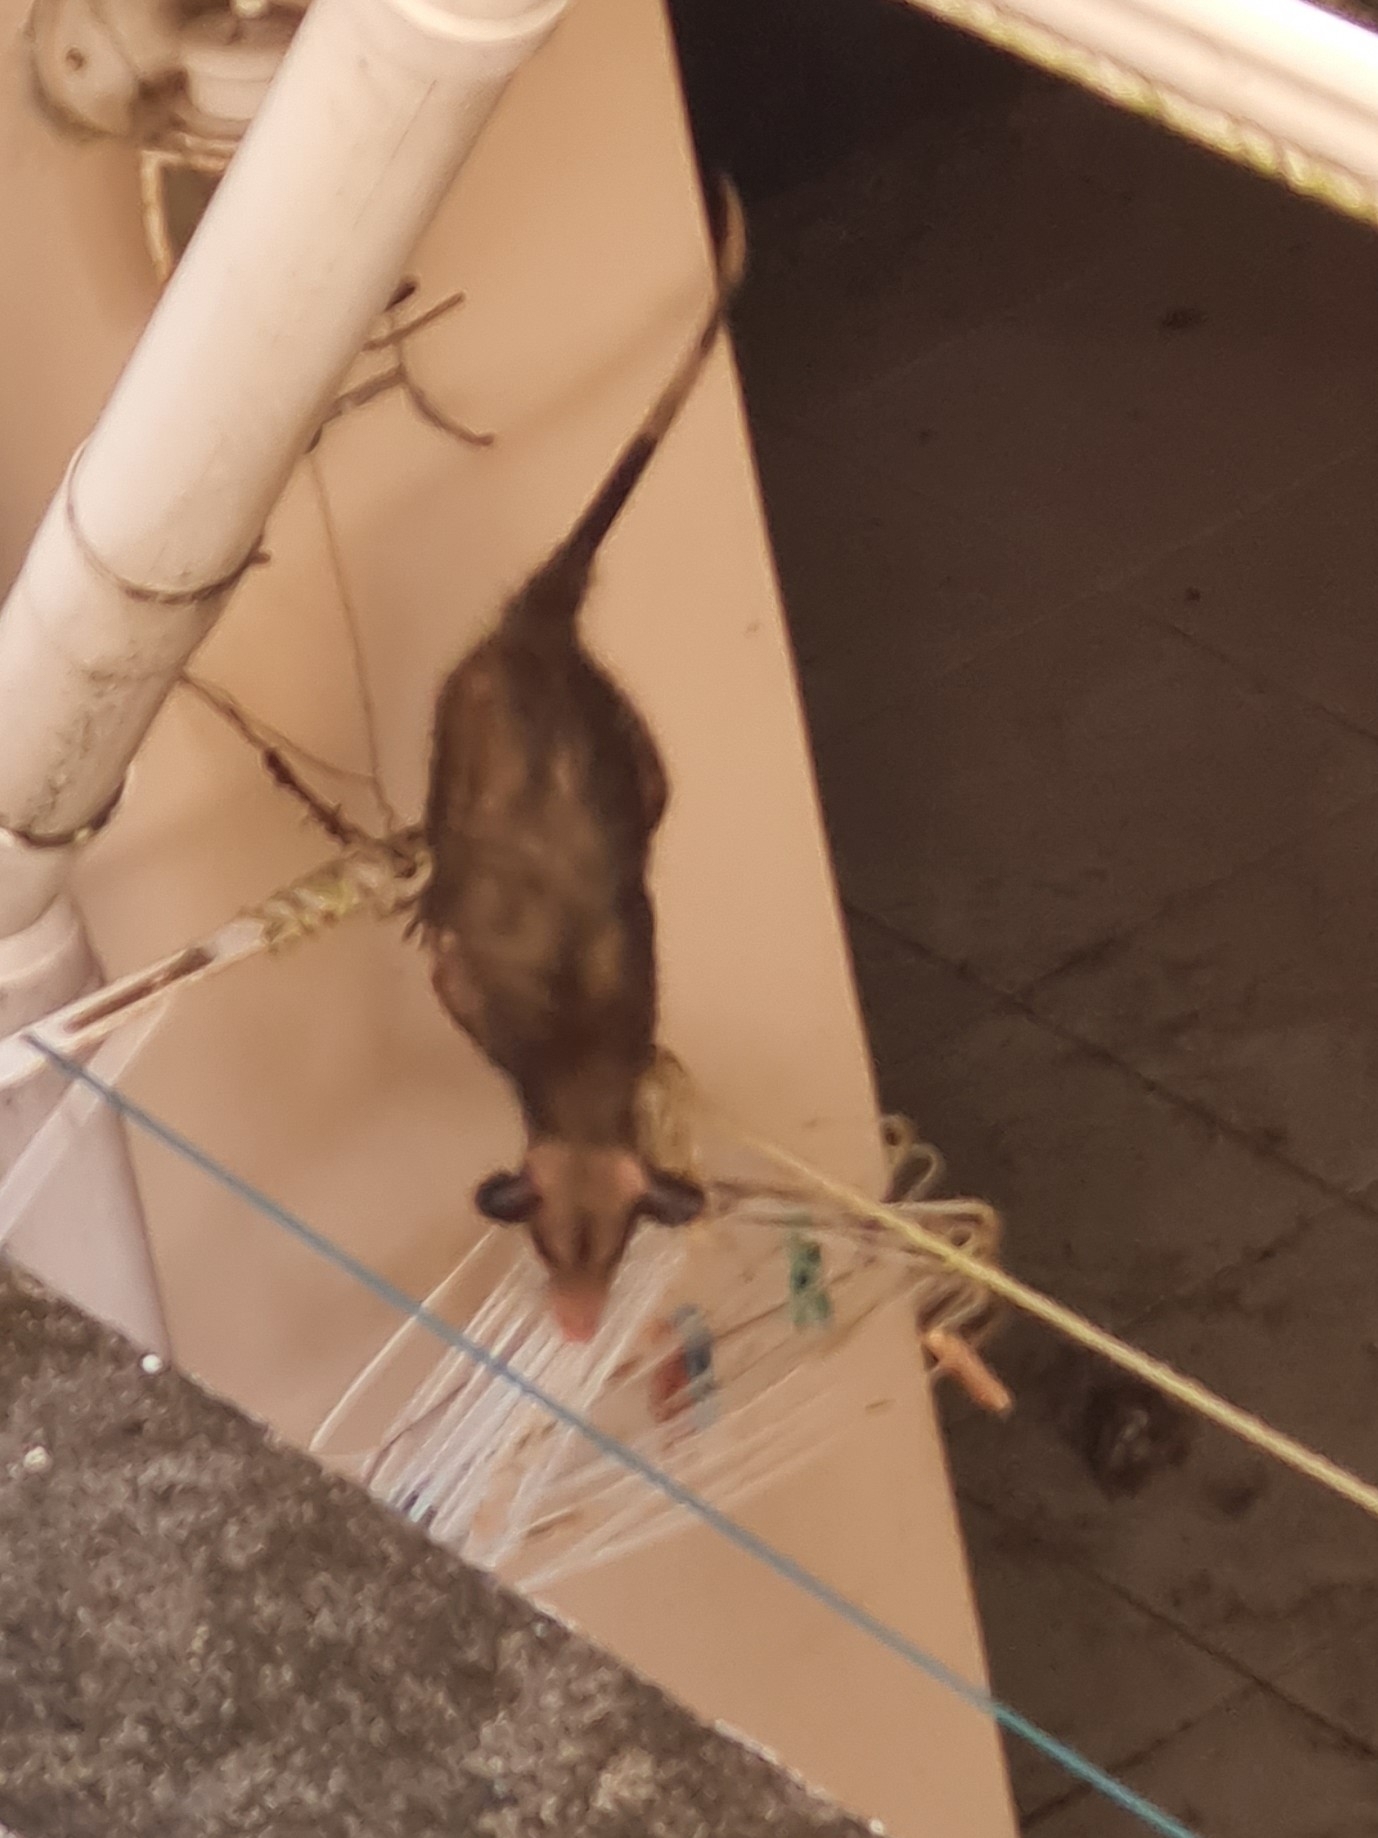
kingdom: Animalia
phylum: Chordata
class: Mammalia
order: Didelphimorphia
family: Didelphidae
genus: Didelphis
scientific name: Didelphis marsupialis
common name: Common opossum
